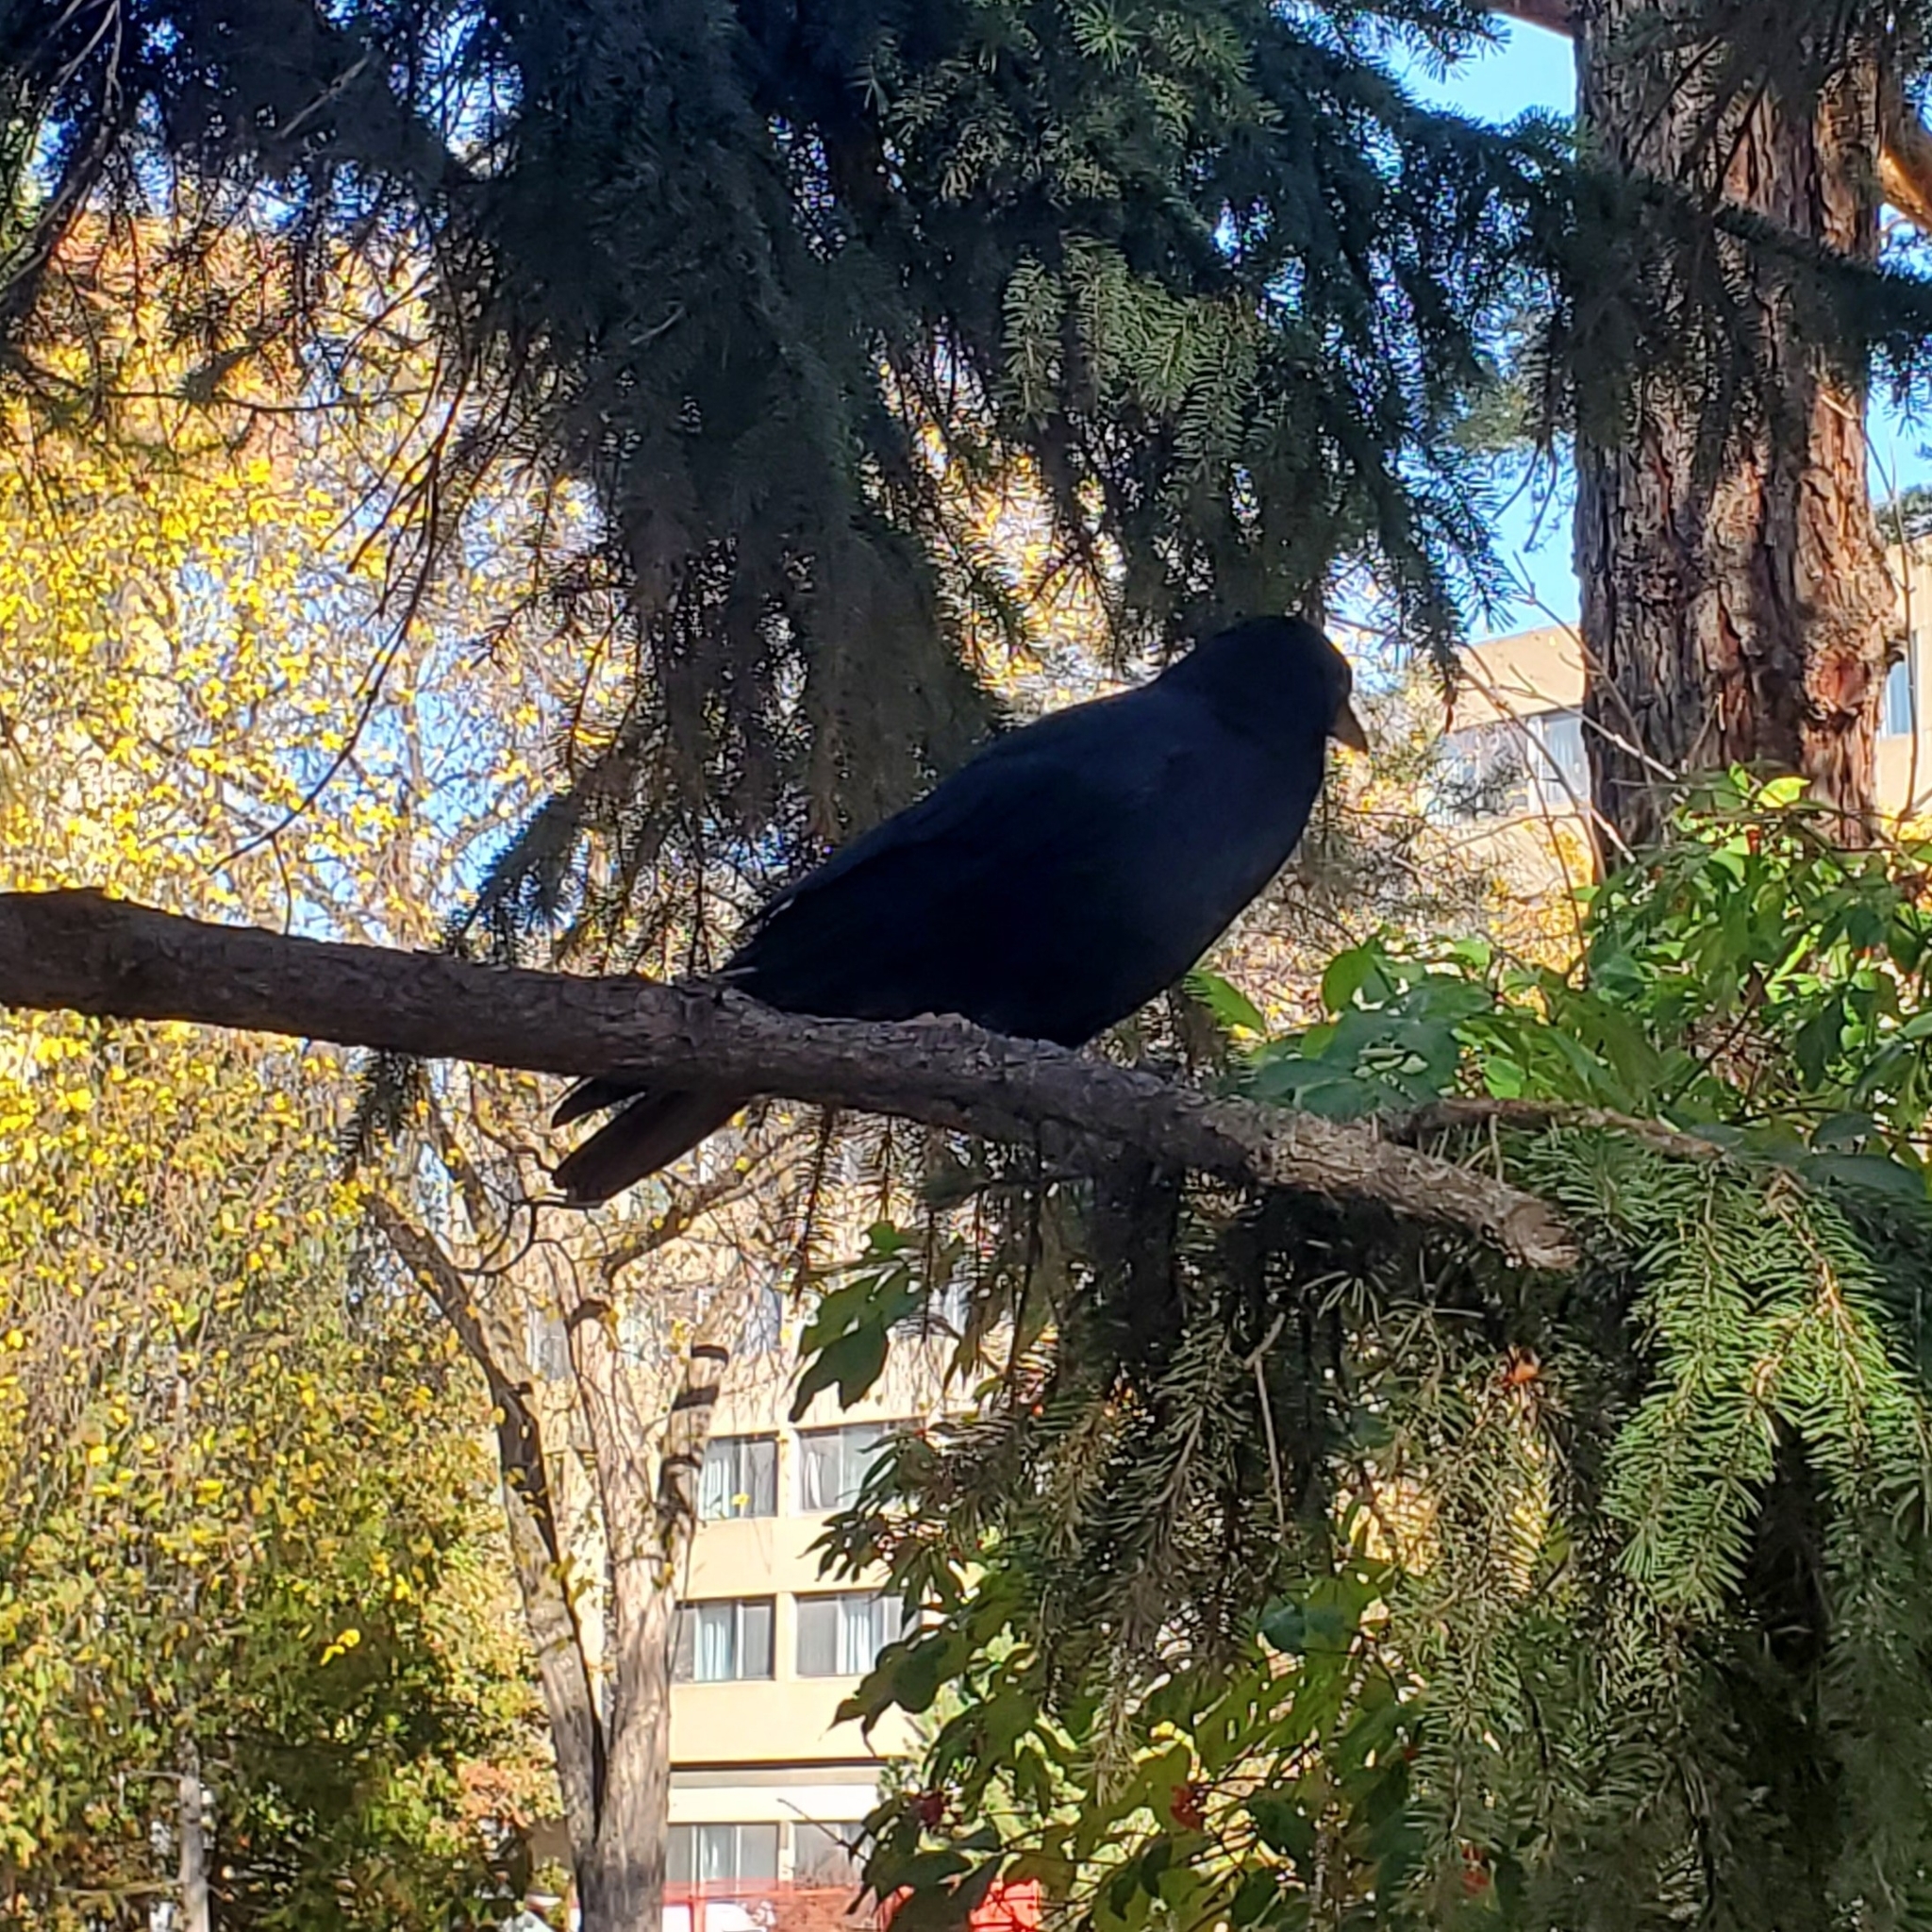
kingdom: Animalia
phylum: Chordata
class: Aves
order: Passeriformes
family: Corvidae
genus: Corvus
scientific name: Corvus brachyrhynchos
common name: American crow
